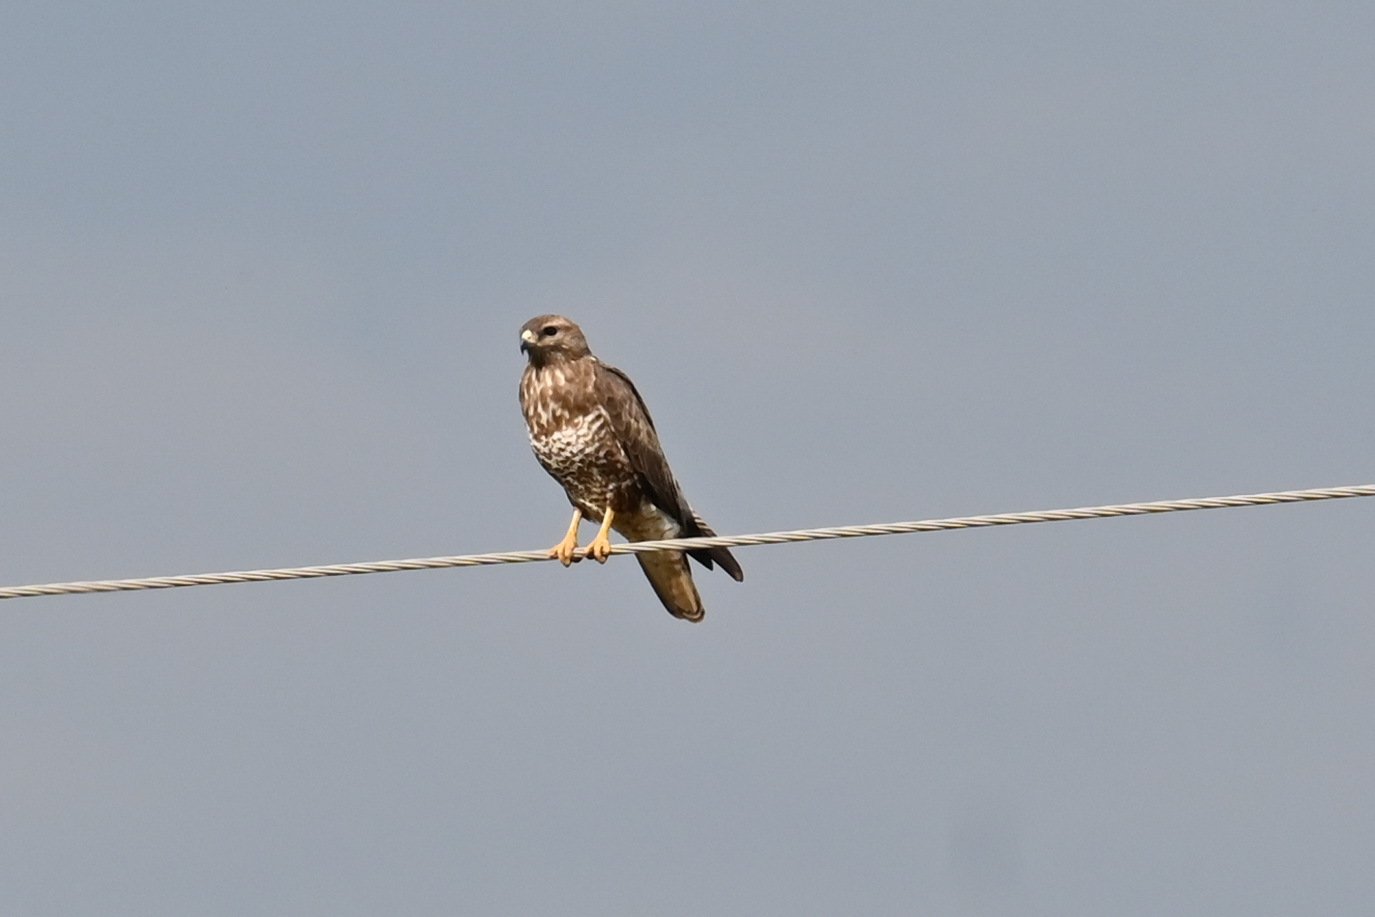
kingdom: Animalia
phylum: Chordata
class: Aves
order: Accipitriformes
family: Accipitridae
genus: Buteo
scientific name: Buteo buteo
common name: Common buzzard
